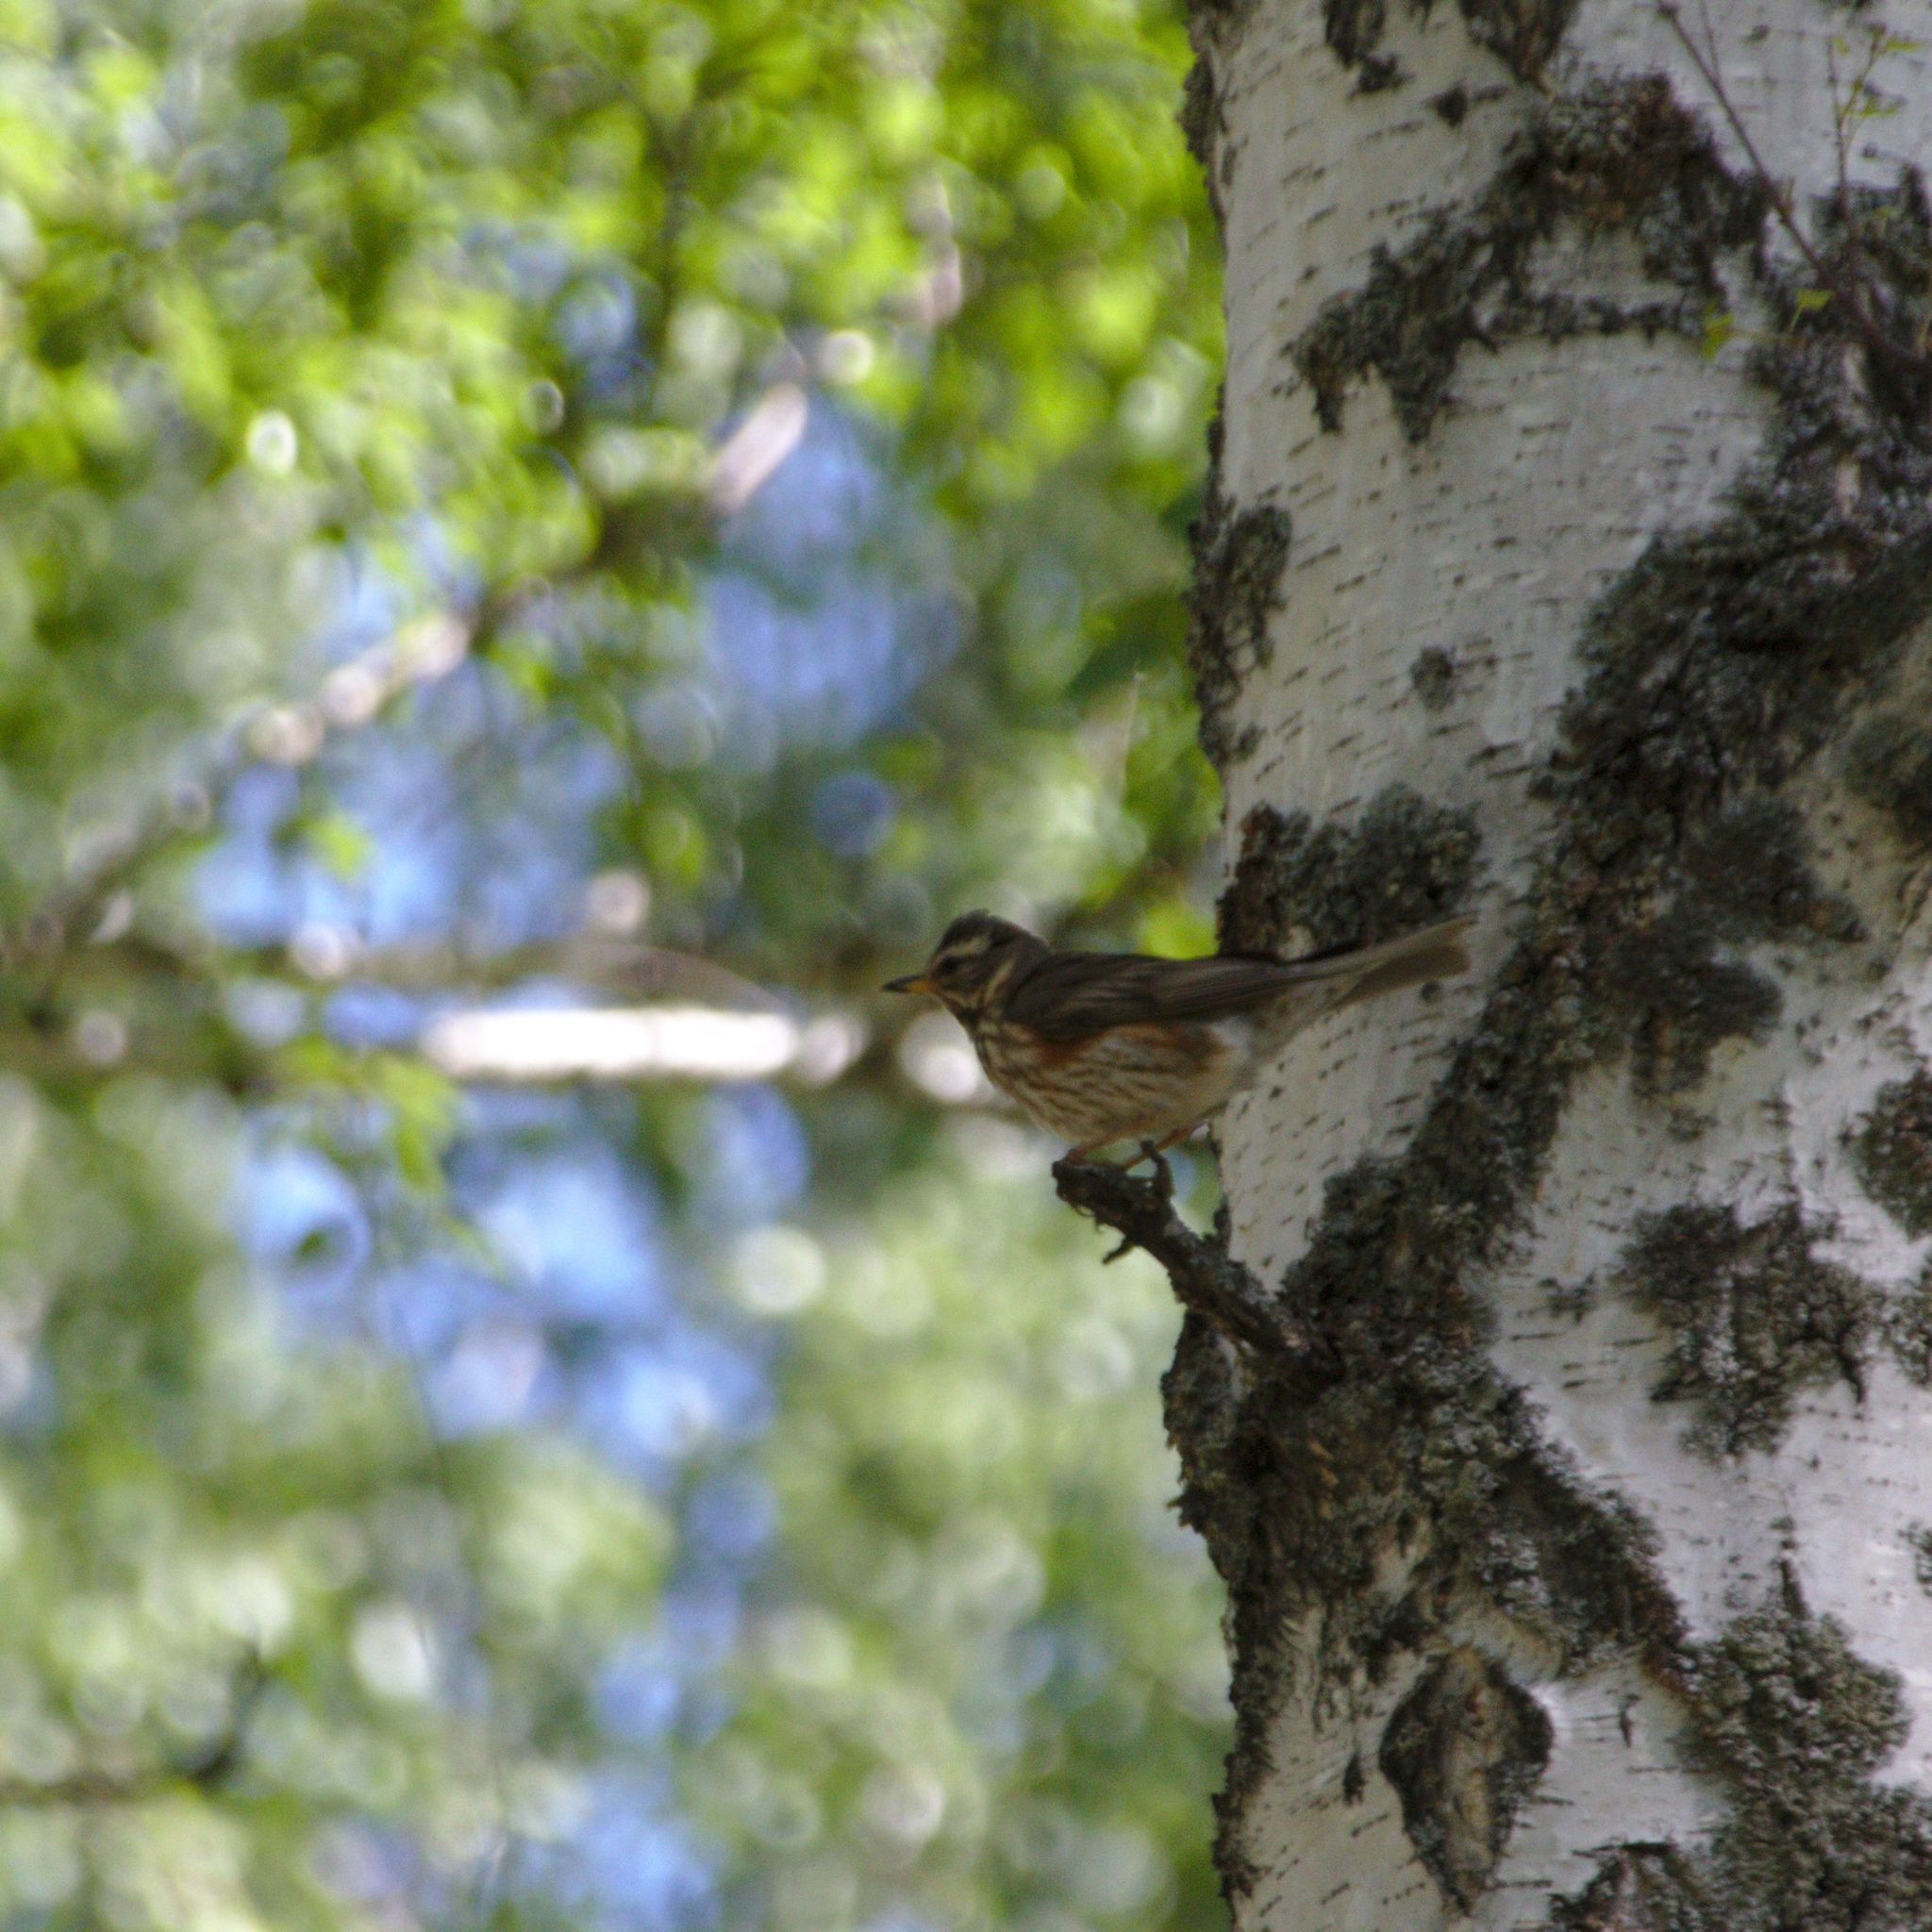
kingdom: Animalia
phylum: Chordata
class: Aves
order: Passeriformes
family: Turdidae
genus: Turdus
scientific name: Turdus iliacus
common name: Redwing
